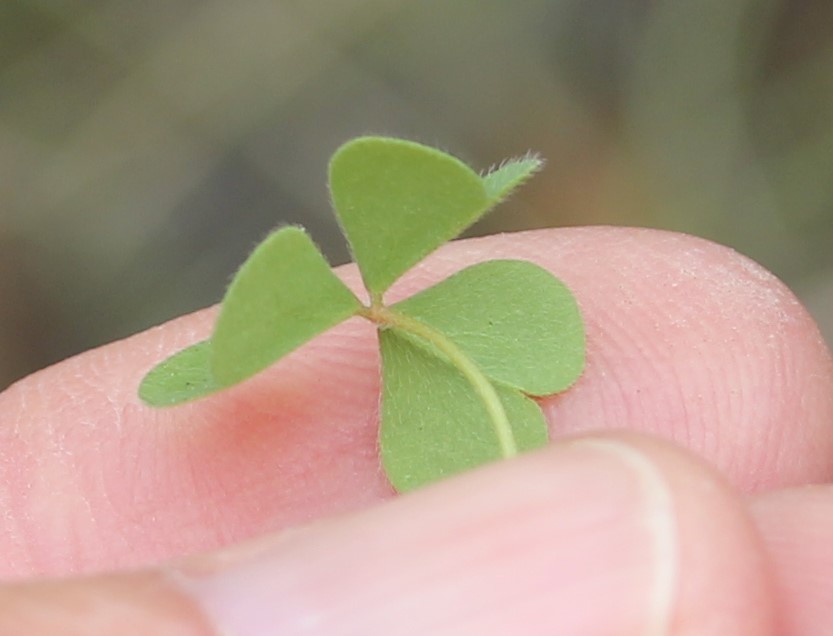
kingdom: Plantae
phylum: Tracheophyta
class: Magnoliopsida
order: Oxalidales
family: Oxalidaceae
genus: Oxalis
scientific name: Oxalis californica
